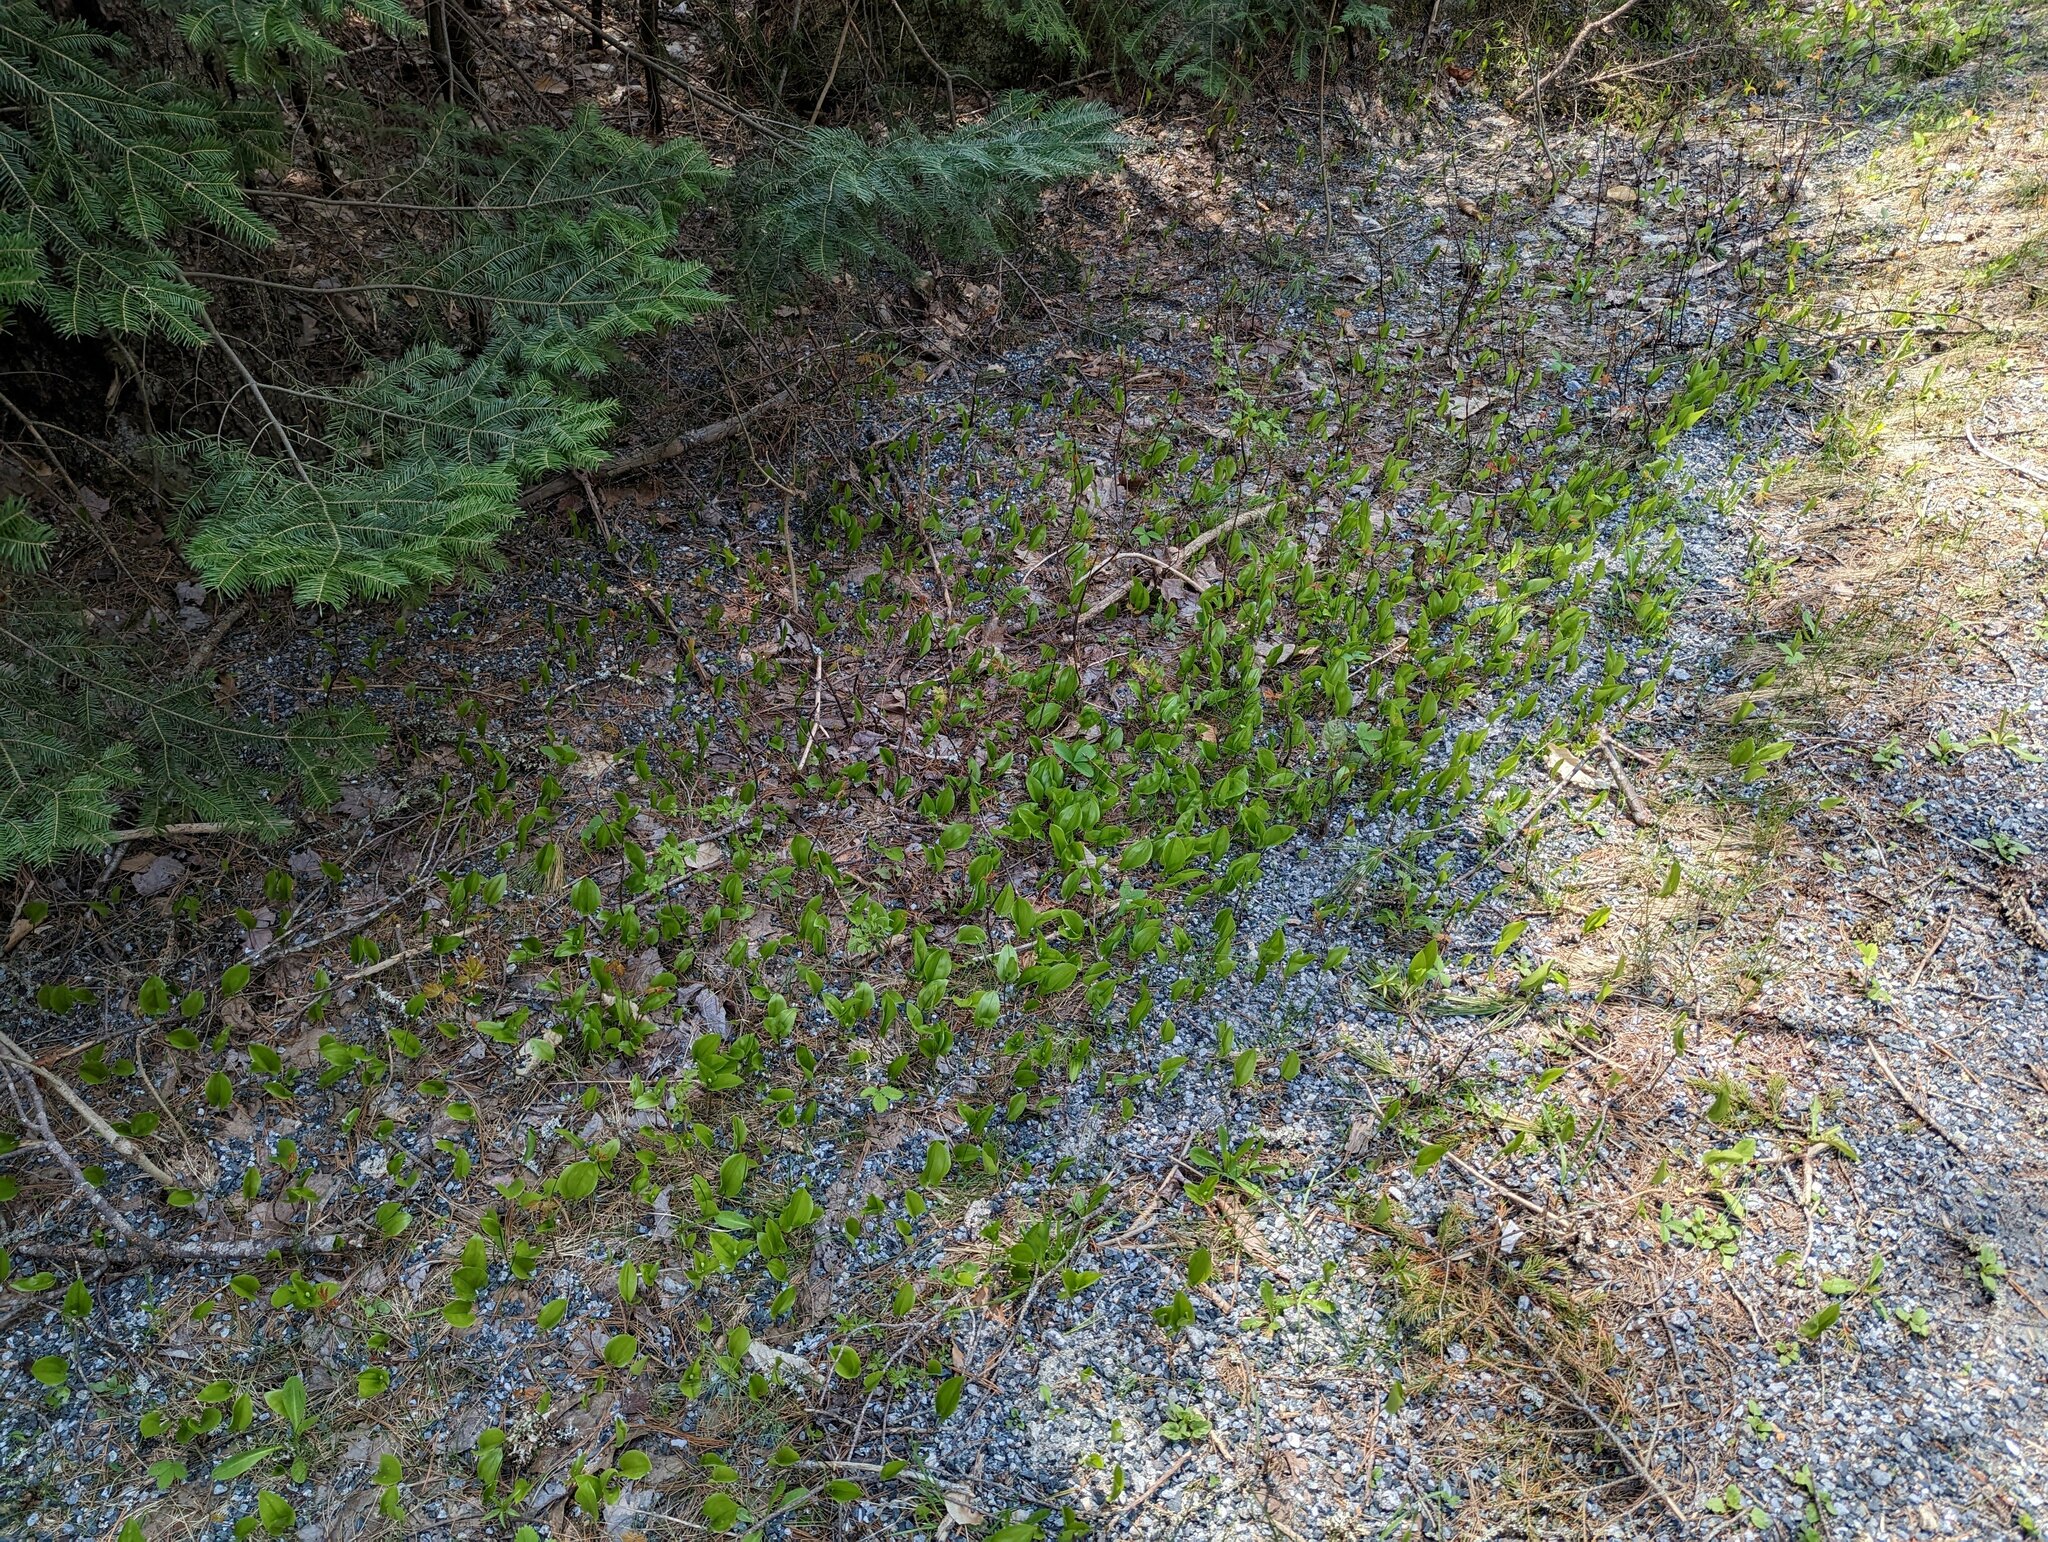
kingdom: Plantae
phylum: Tracheophyta
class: Liliopsida
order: Asparagales
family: Asparagaceae
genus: Maianthemum
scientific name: Maianthemum canadense
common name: False lily-of-the-valley
